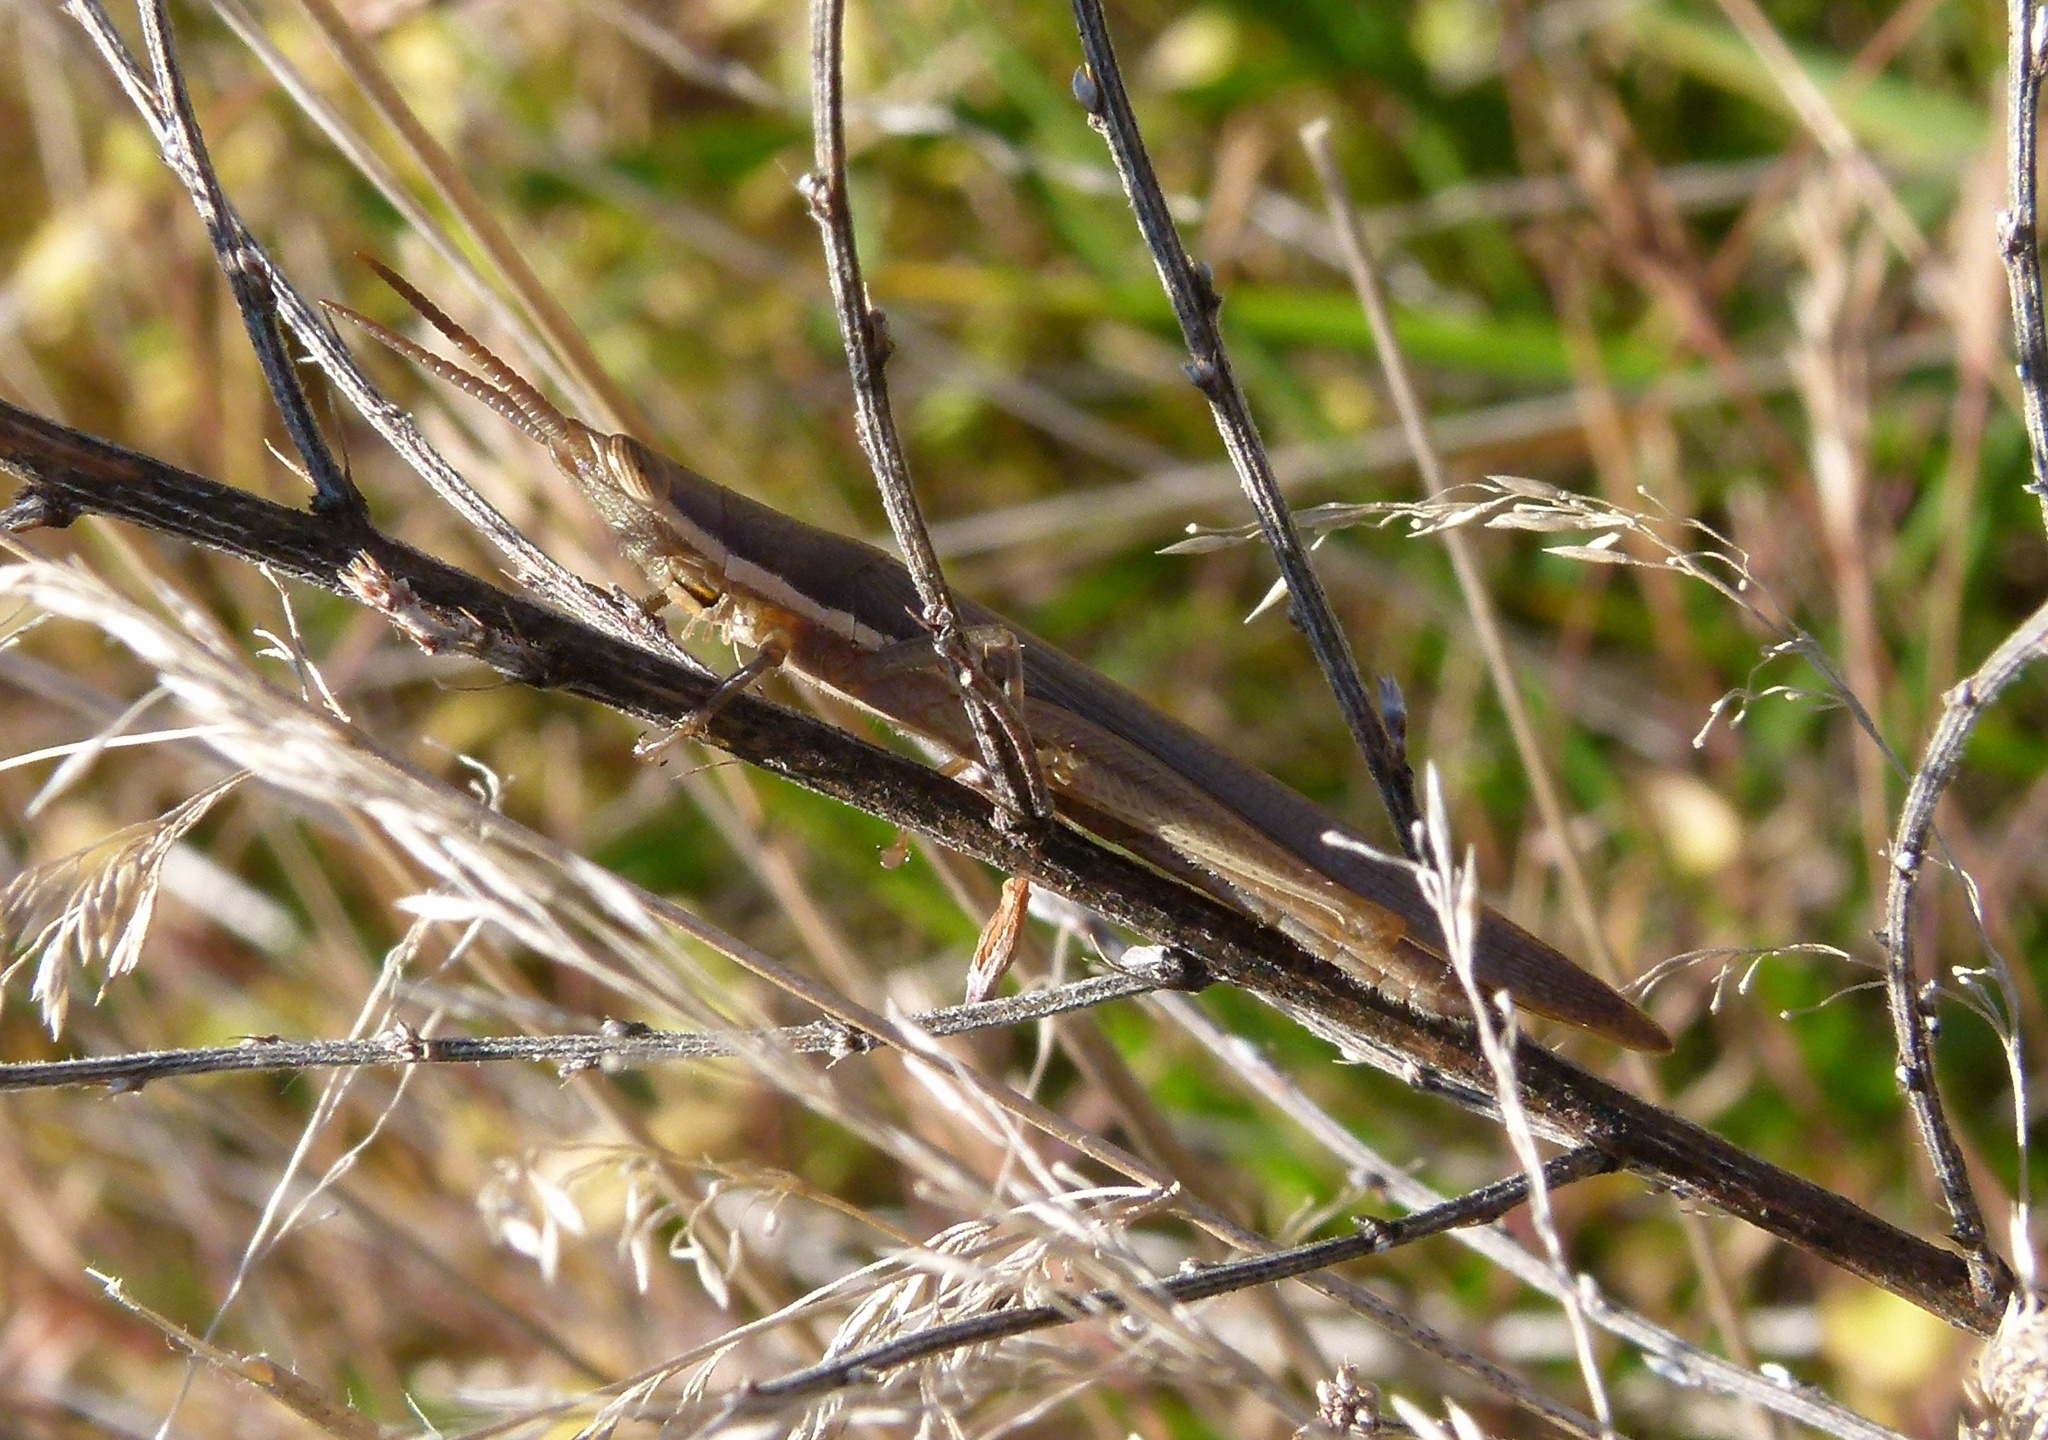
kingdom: Animalia
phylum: Arthropoda
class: Insecta
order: Orthoptera
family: Acrididae
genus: Leptysma
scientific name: Leptysma marginicollis
